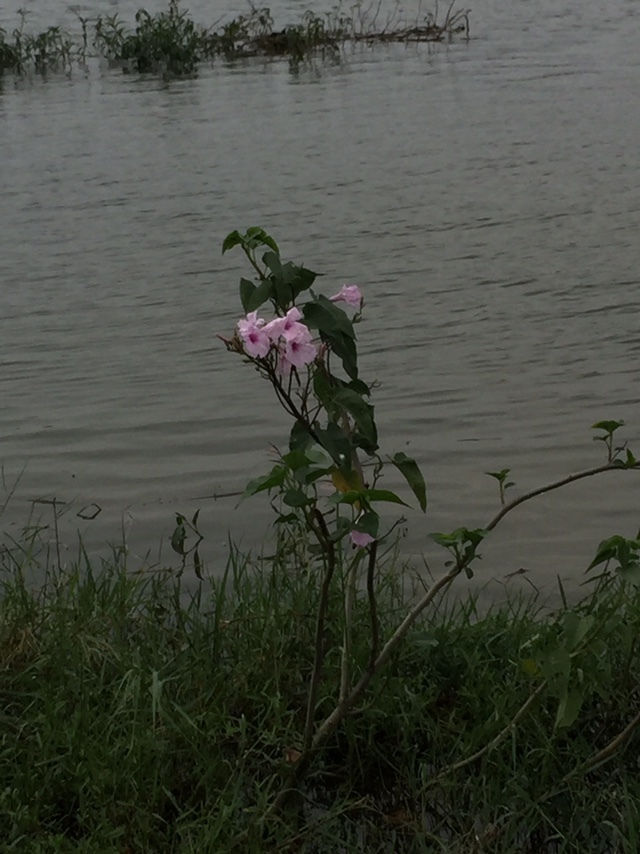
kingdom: Plantae
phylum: Tracheophyta
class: Magnoliopsida
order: Solanales
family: Convolvulaceae
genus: Ipomoea
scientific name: Ipomoea carnea
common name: Morning-glory
